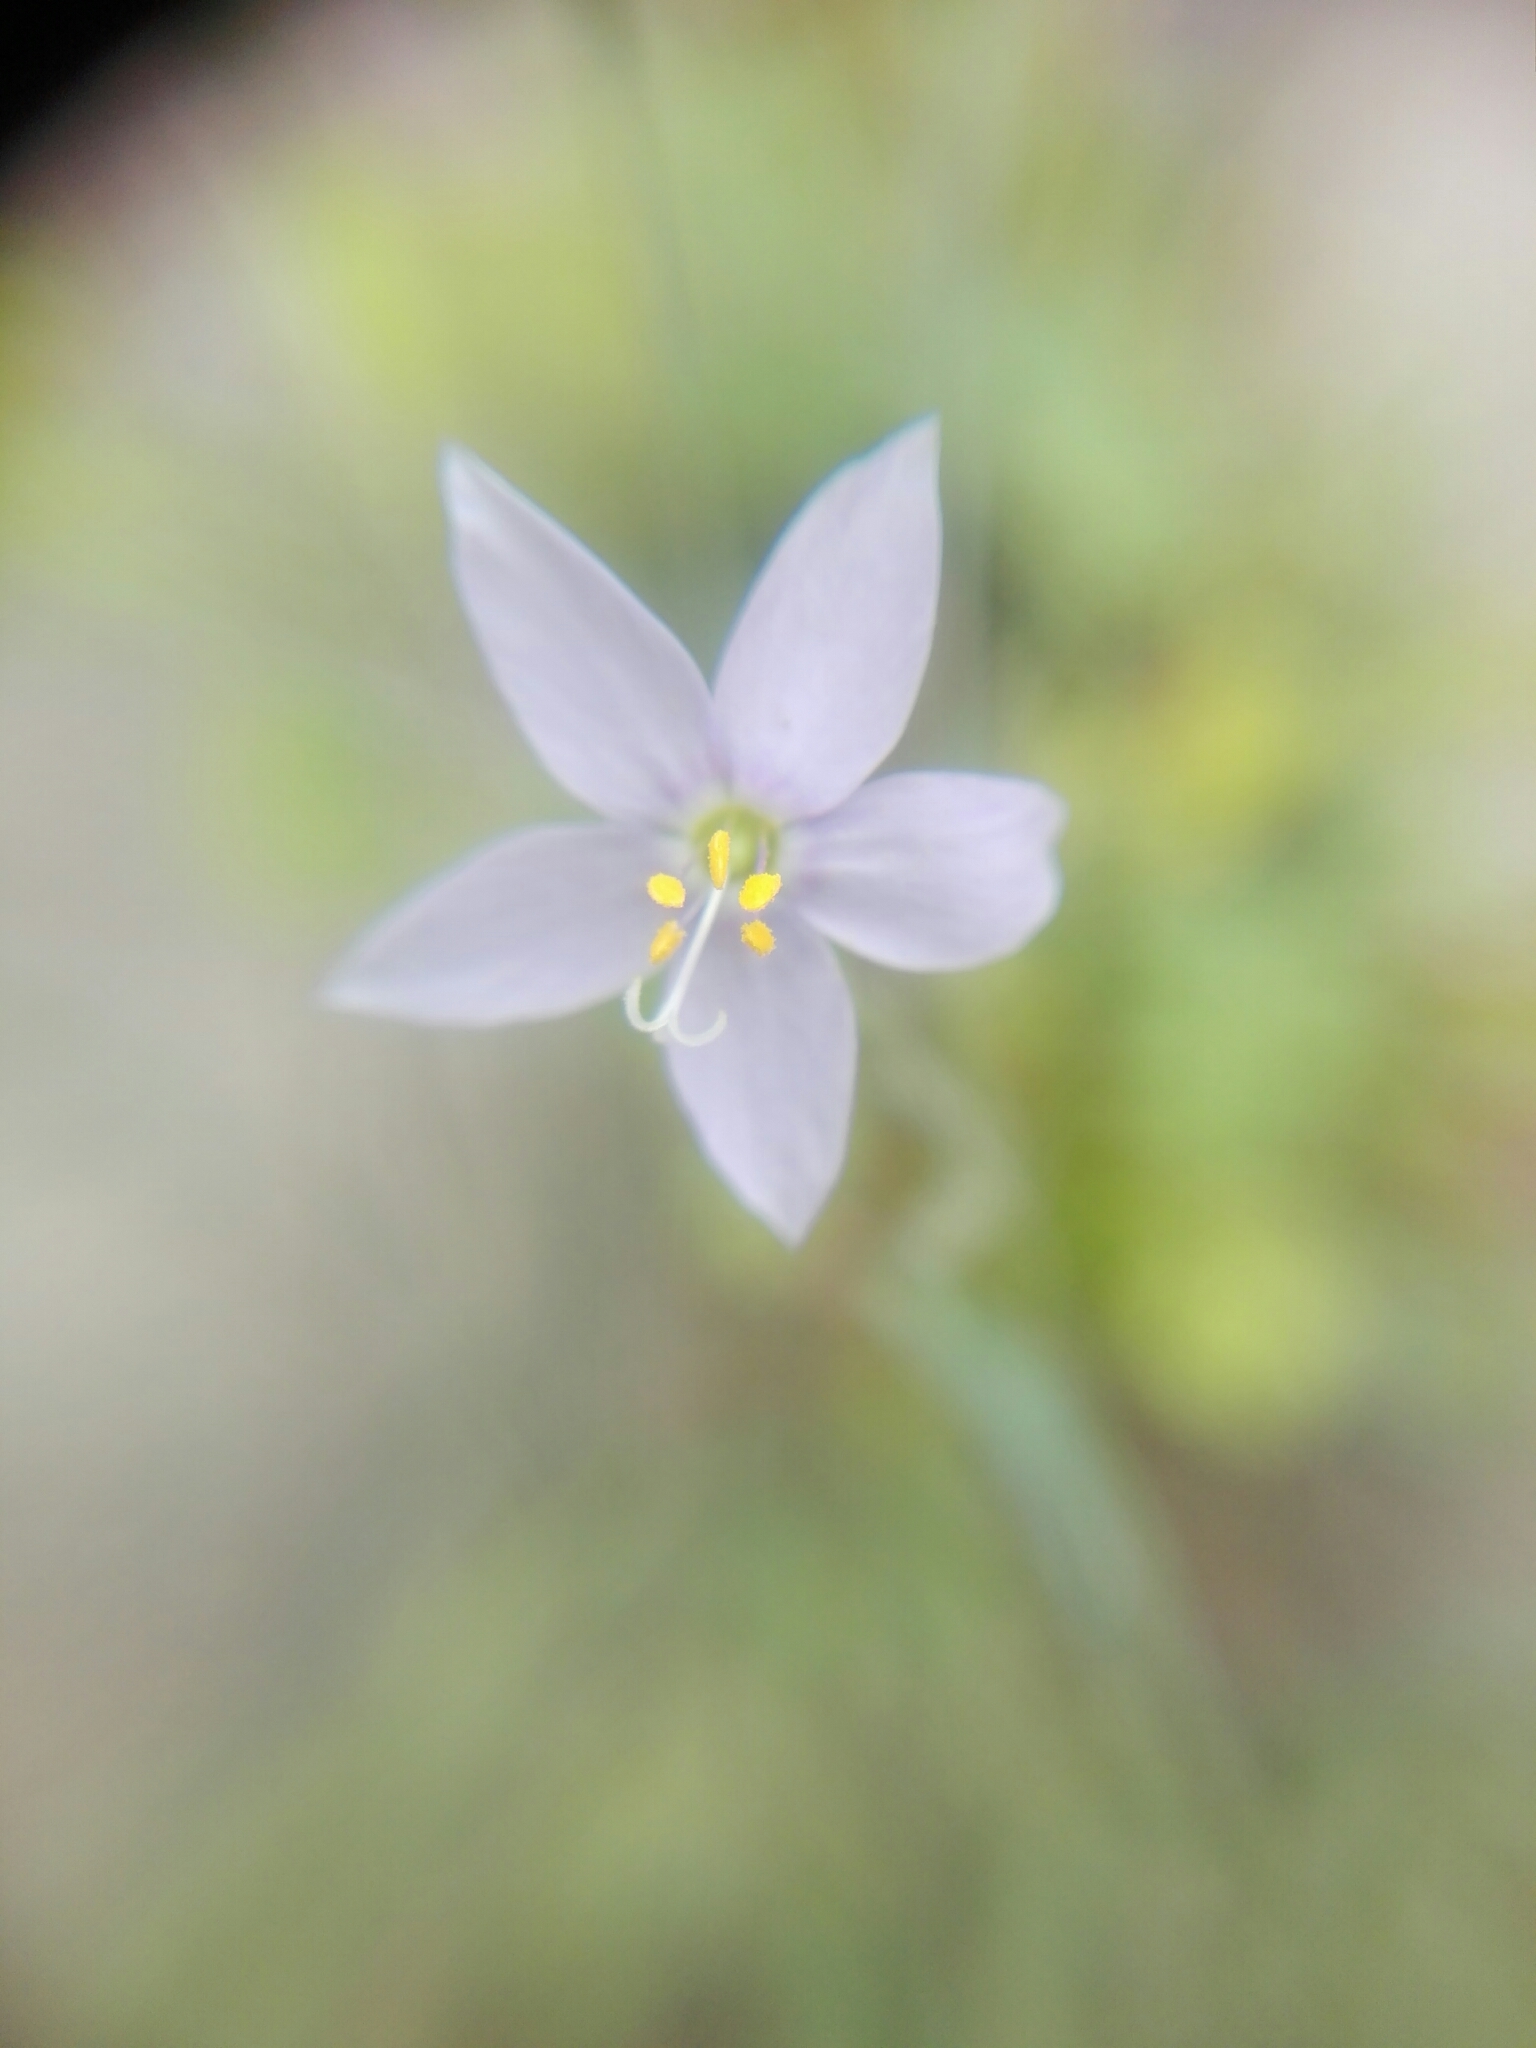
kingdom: Plantae
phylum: Tracheophyta
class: Magnoliopsida
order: Ericales
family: Polemoniaceae
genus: Giliastrum
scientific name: Giliastrum incisum
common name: Splitleaf gilia
